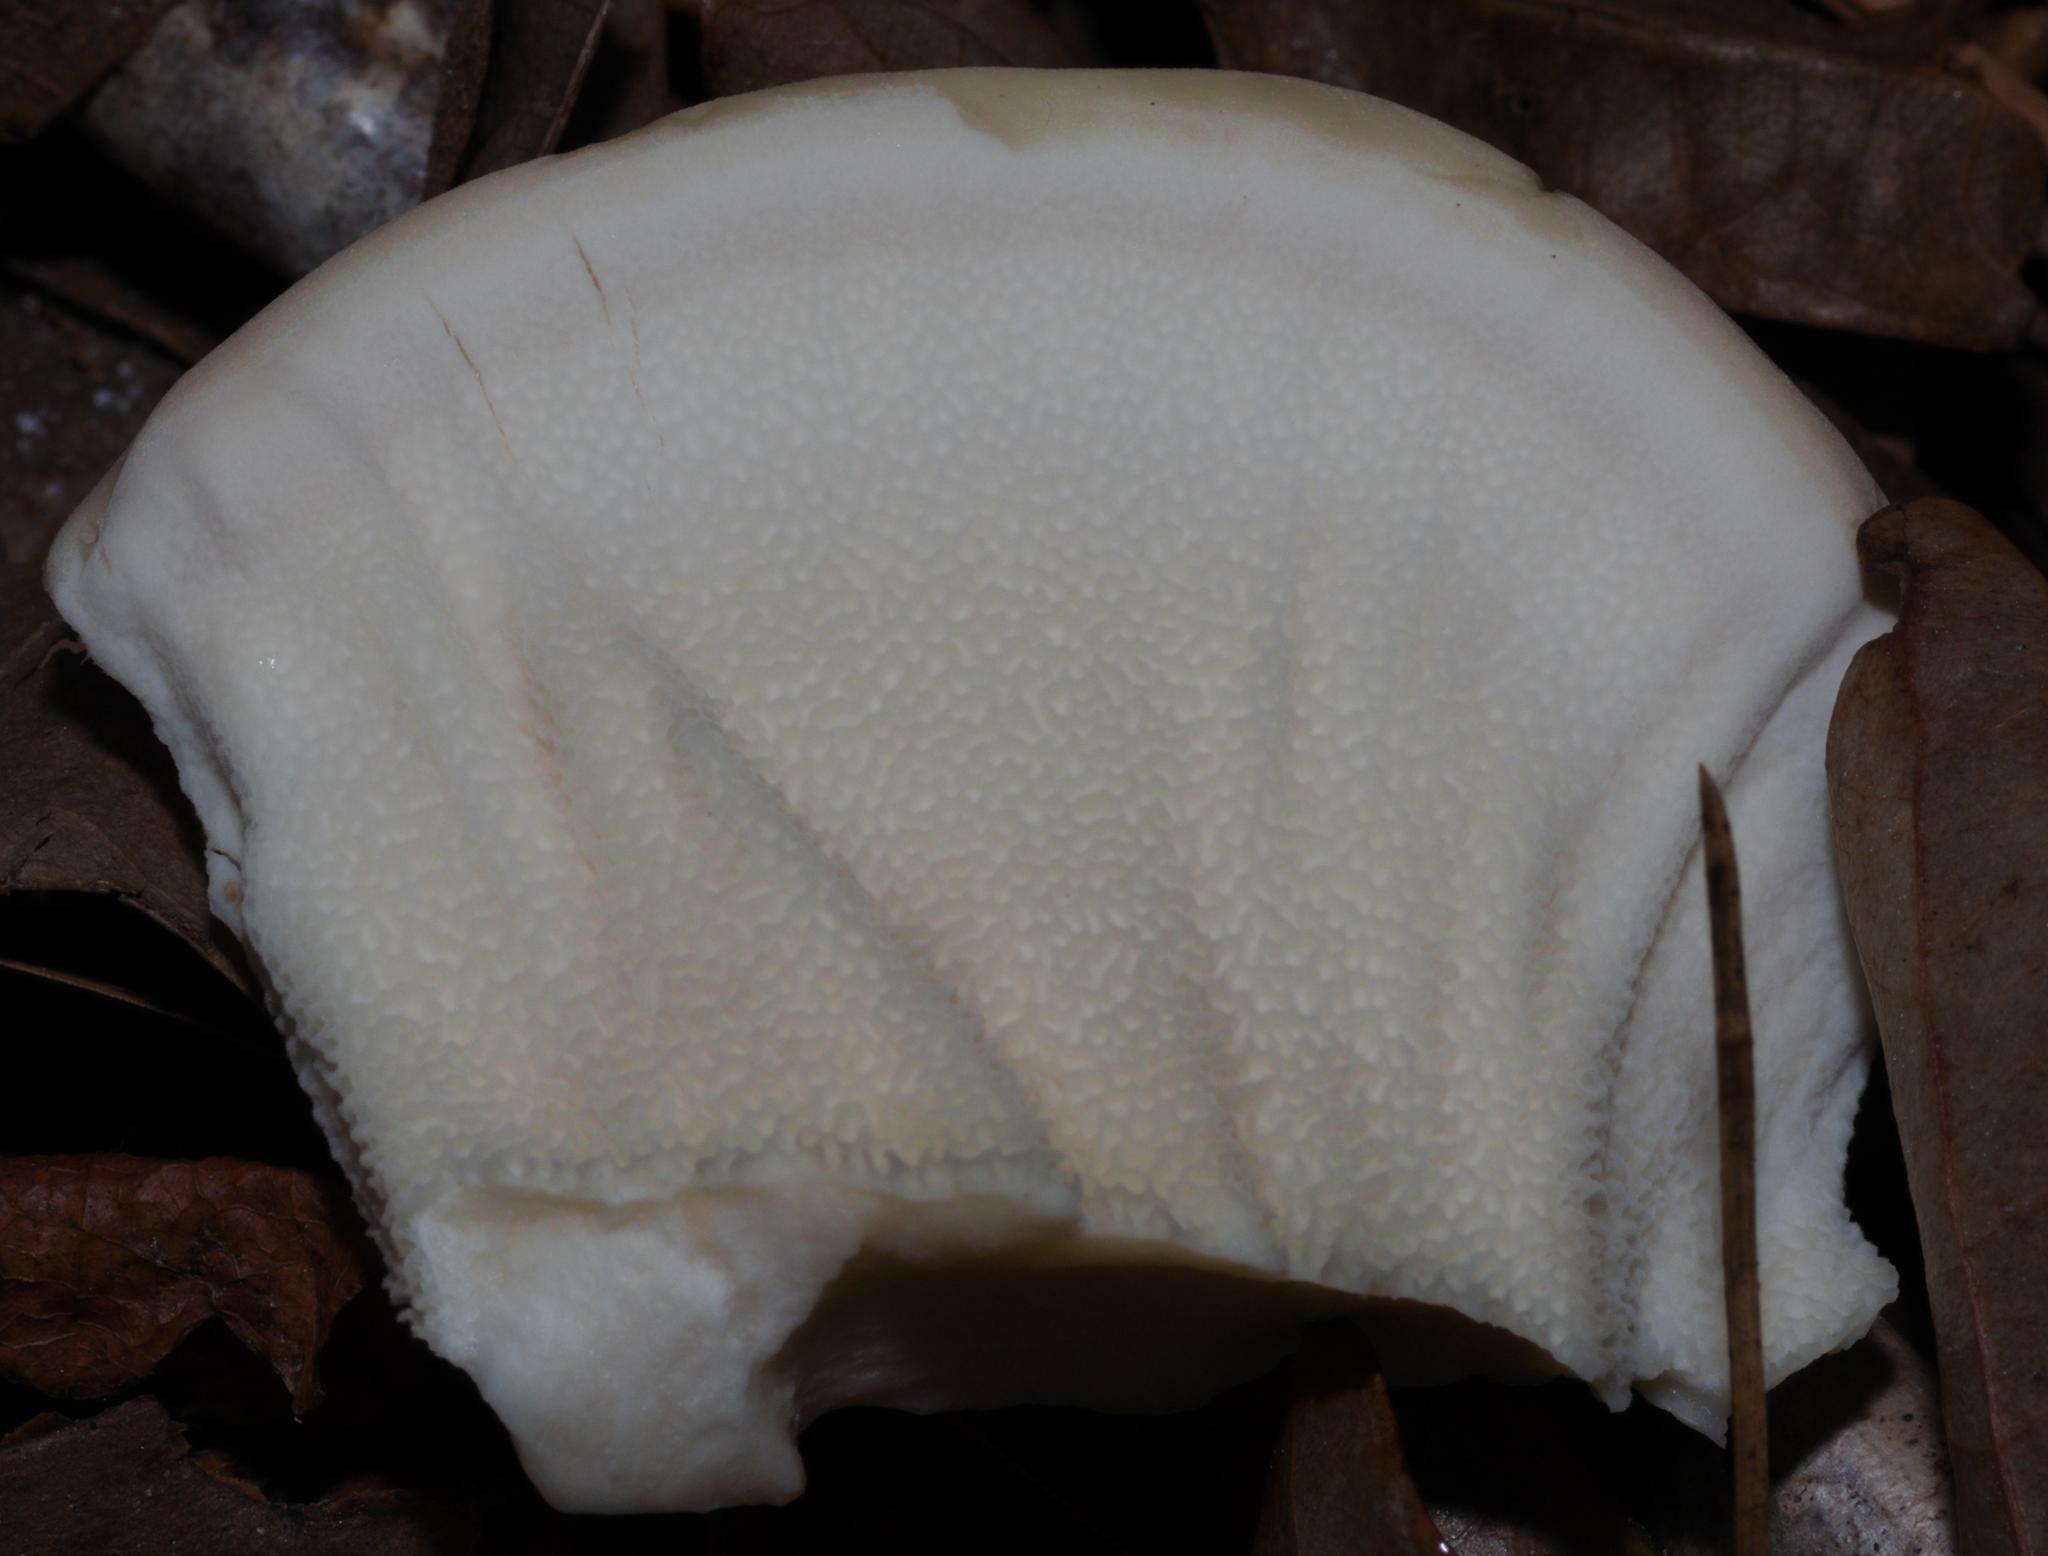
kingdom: Fungi
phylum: Basidiomycota
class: Agaricomycetes
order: Russulales
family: Bondarzewiaceae
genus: Bondarzewia
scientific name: Bondarzewia berkeleyi
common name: Berkeley's polypore
